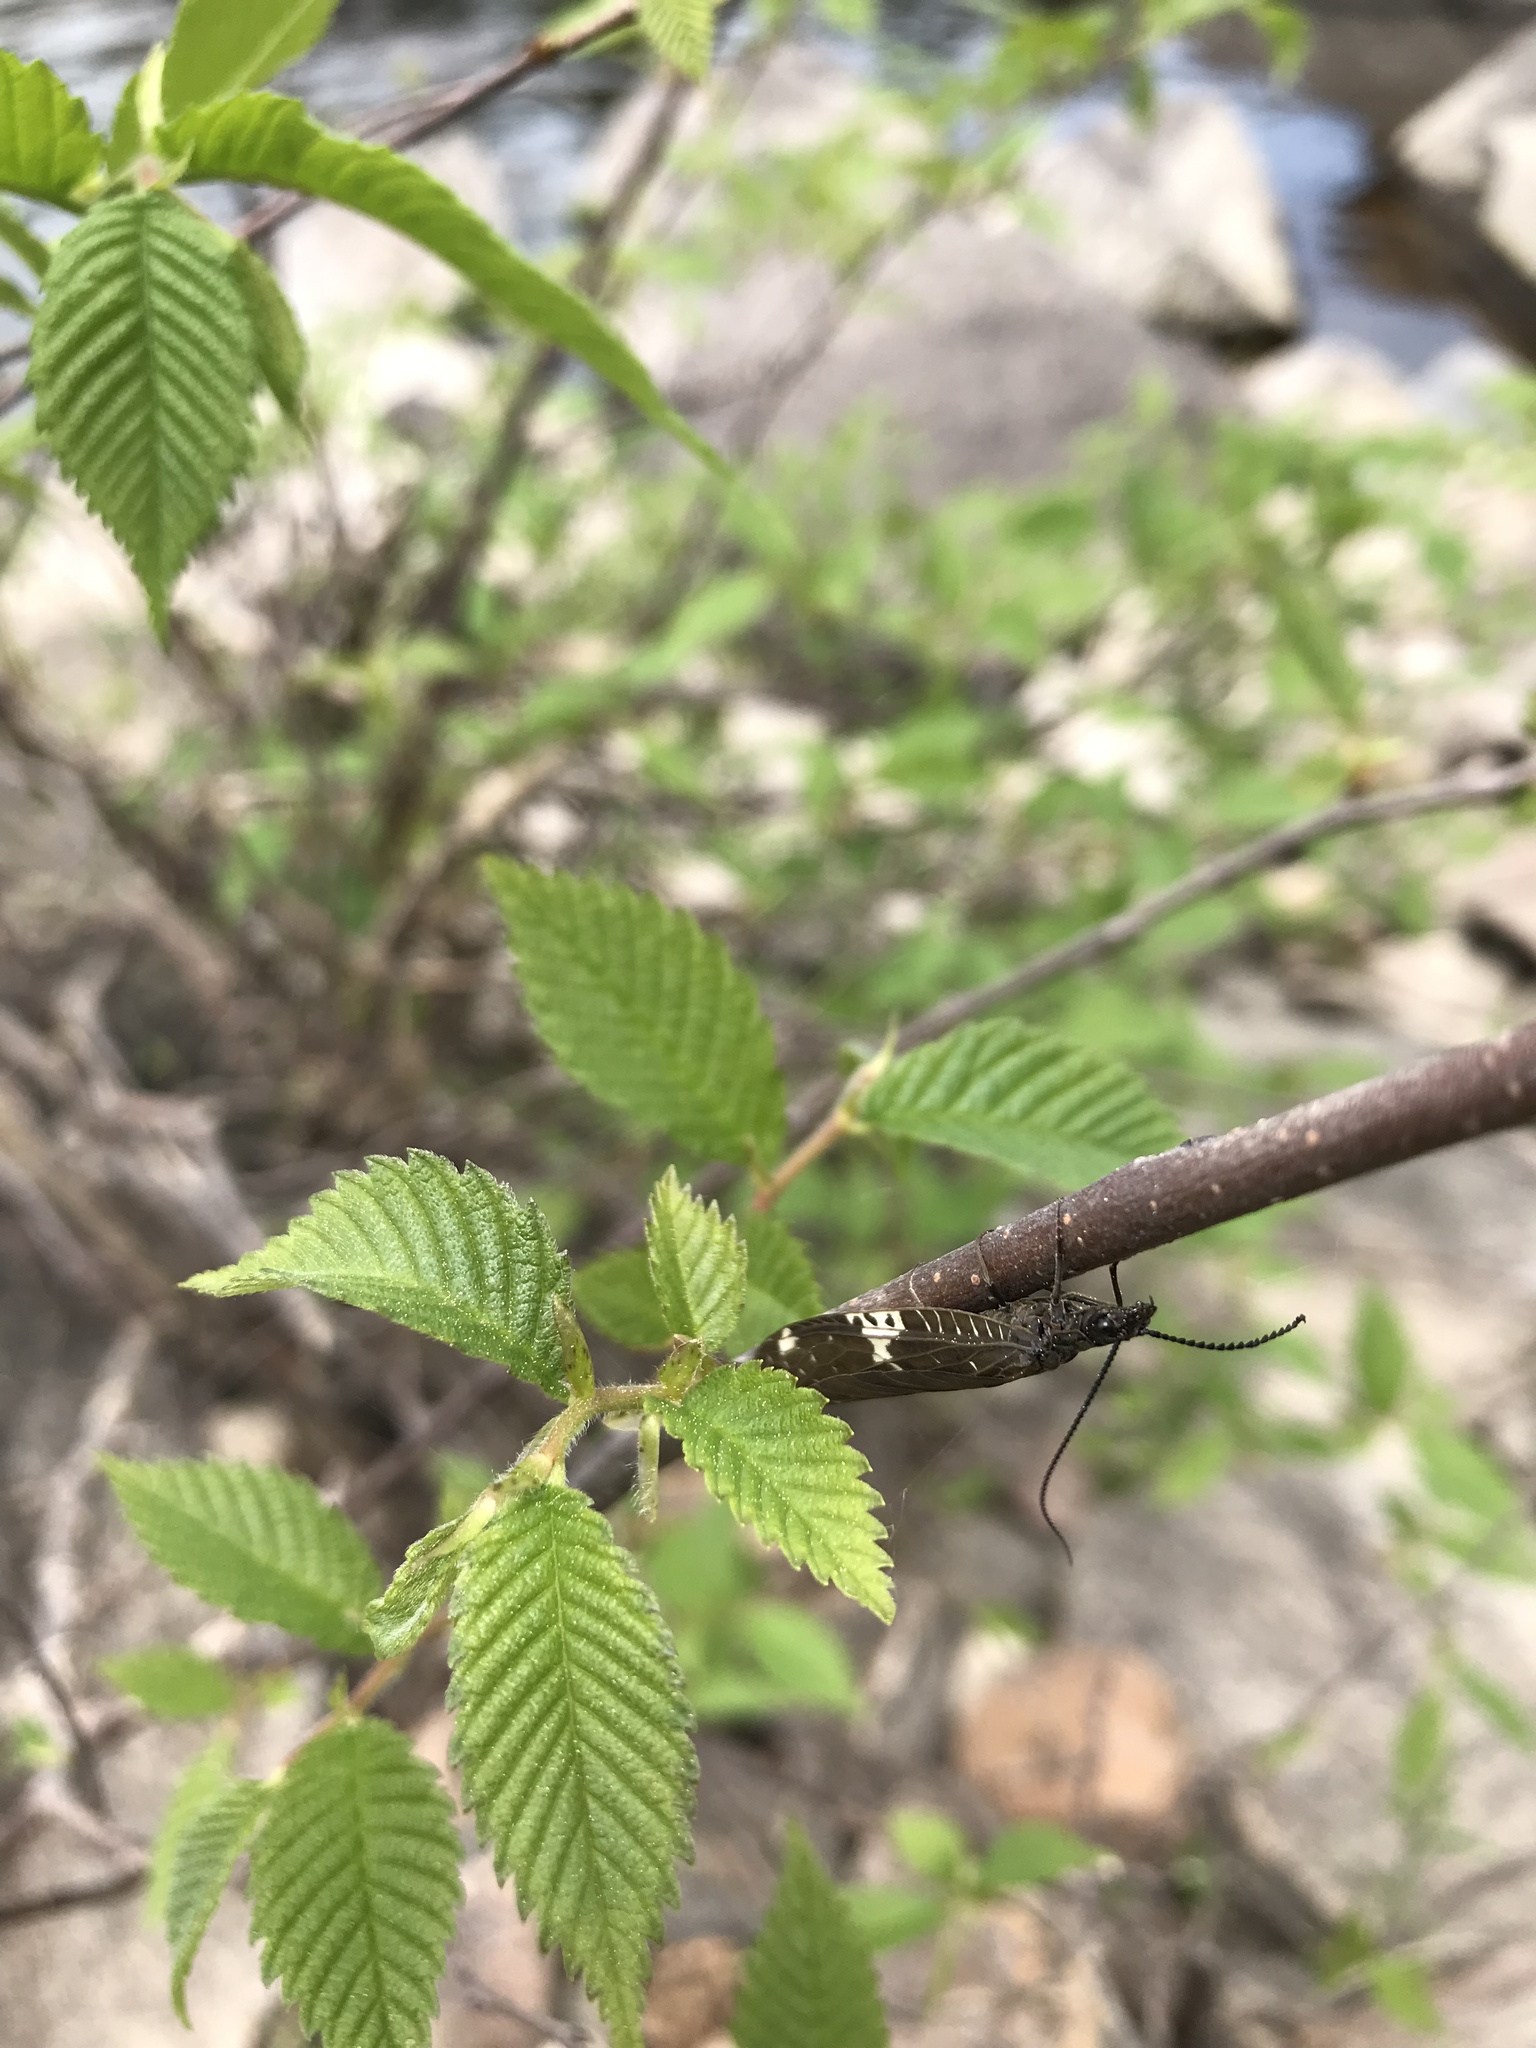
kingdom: Animalia
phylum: Arthropoda
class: Insecta
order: Megaloptera
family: Corydalidae
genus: Nigronia
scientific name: Nigronia serricornis
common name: Serrate dark fishfly
